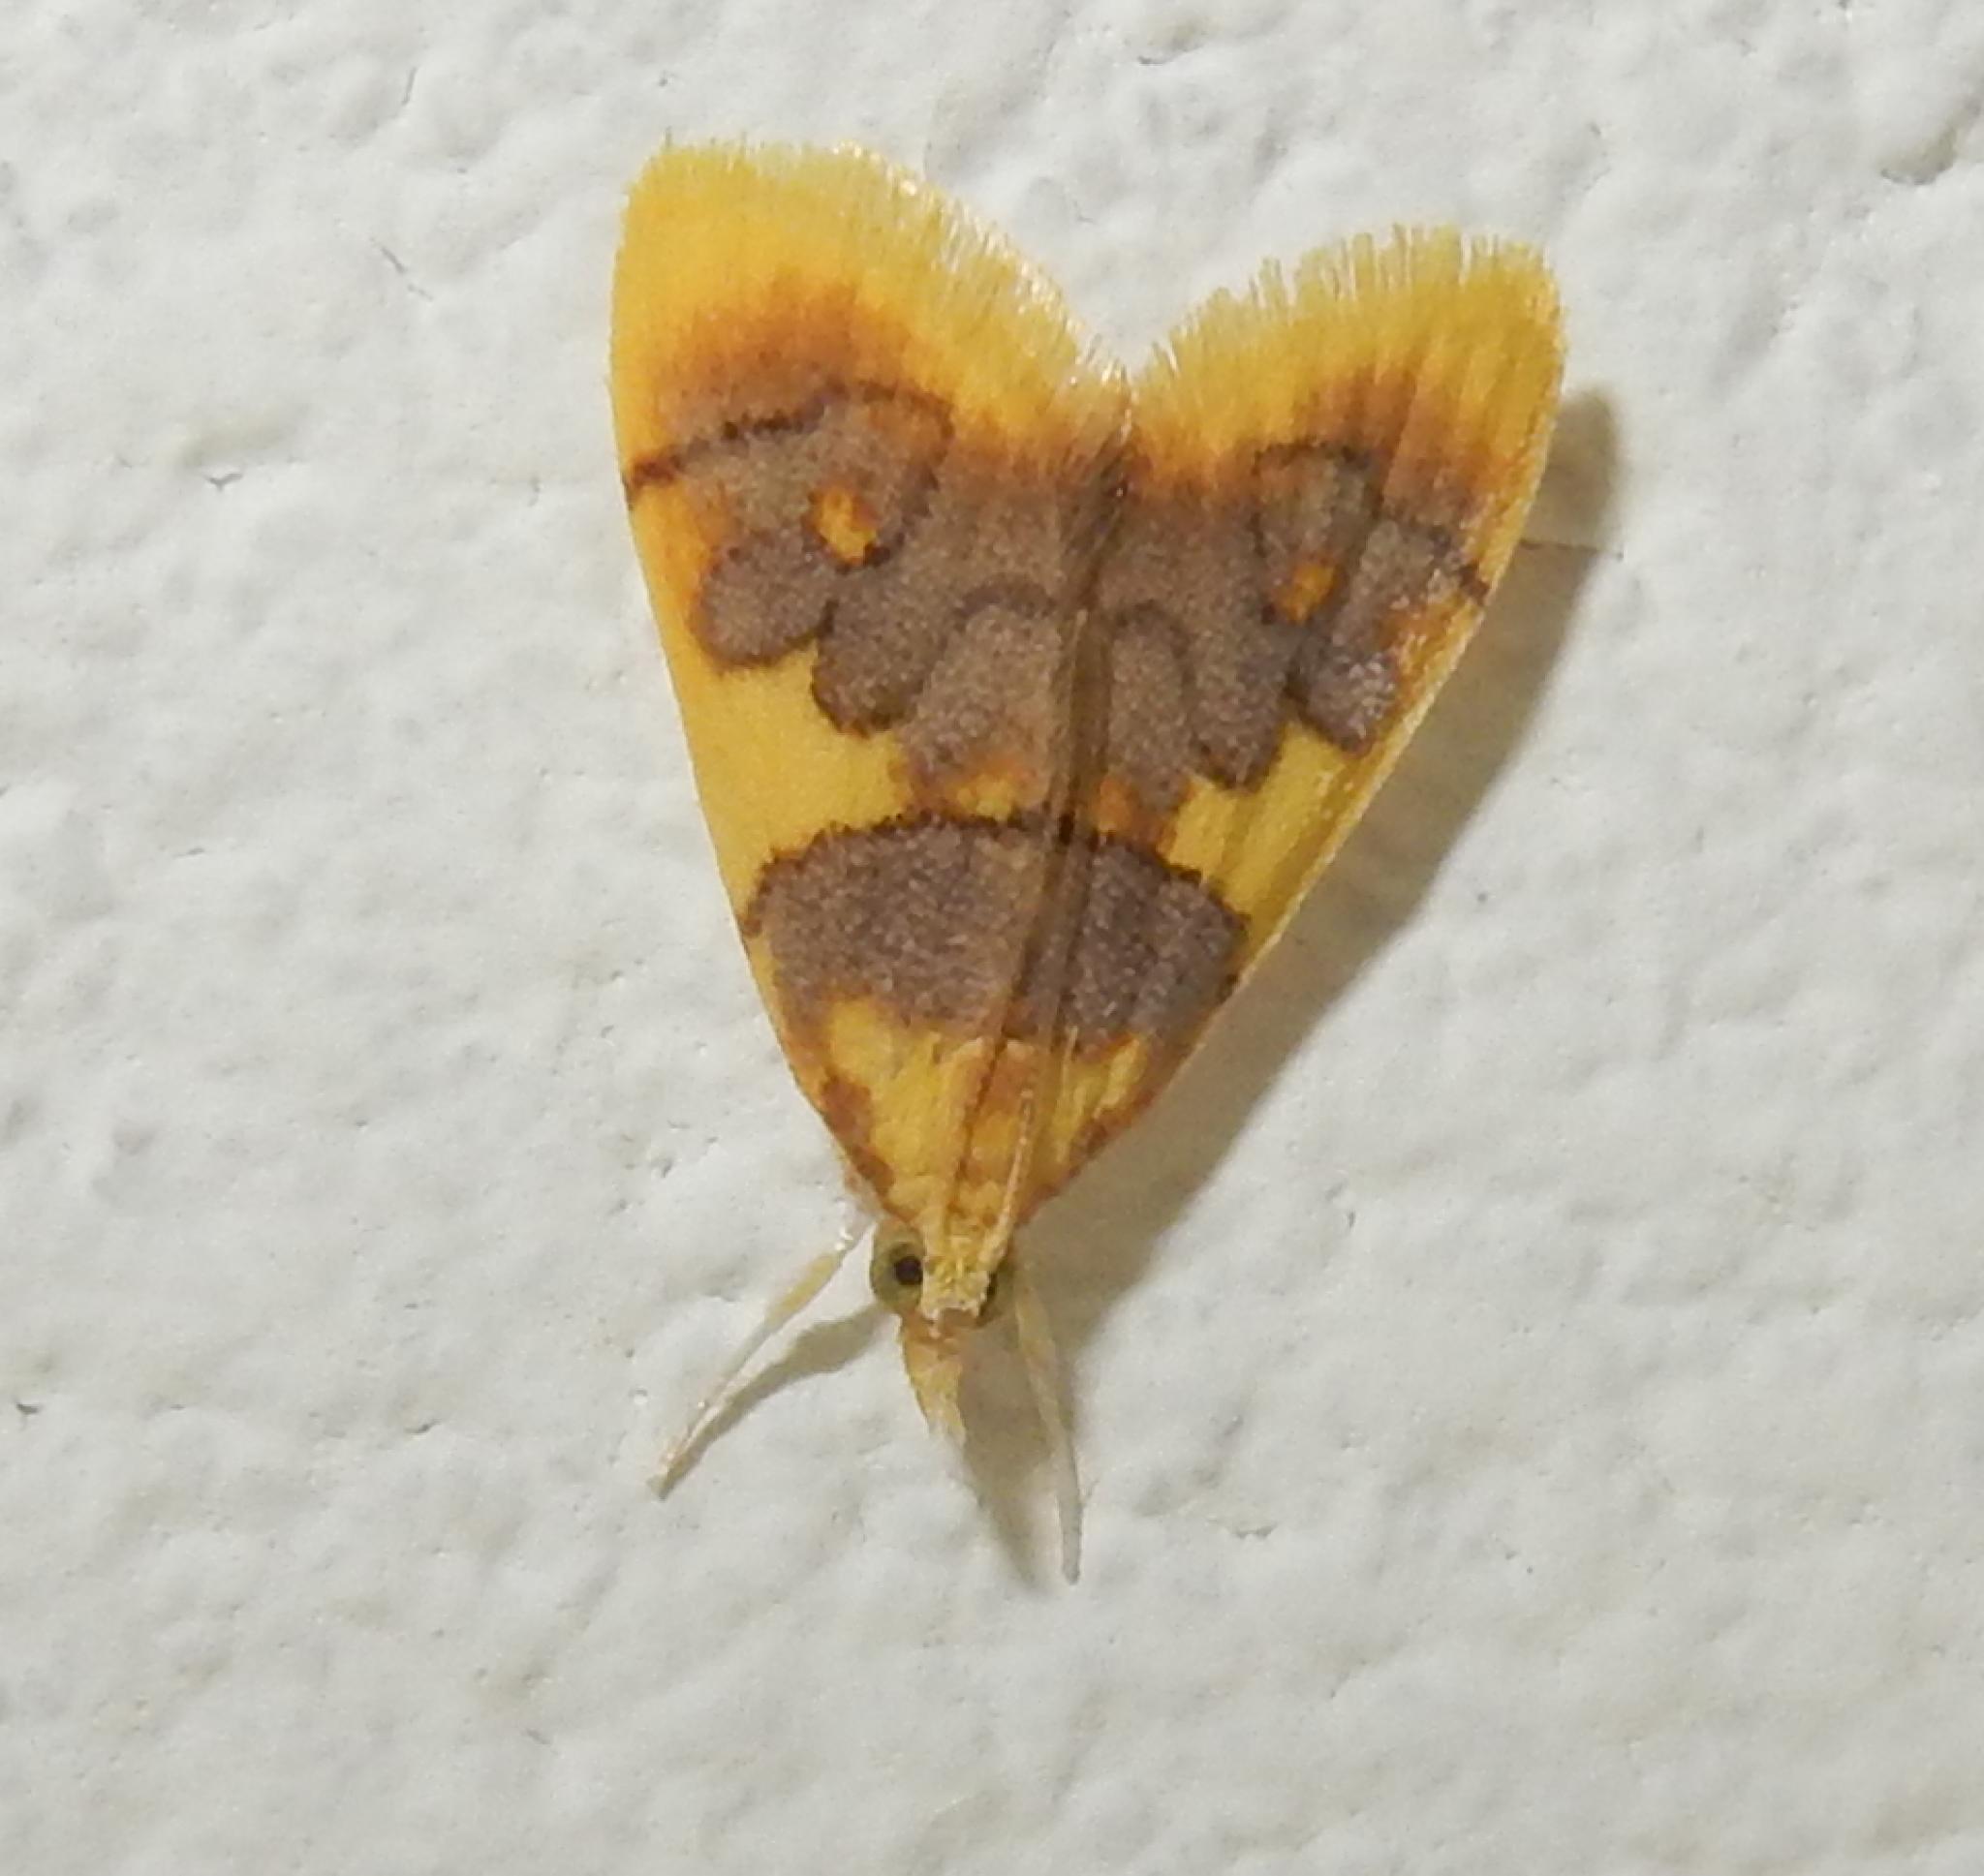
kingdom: Animalia
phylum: Arthropoda
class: Insecta
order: Lepidoptera
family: Crambidae
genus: Thliptoceras
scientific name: Thliptoceras xanthocraspia
